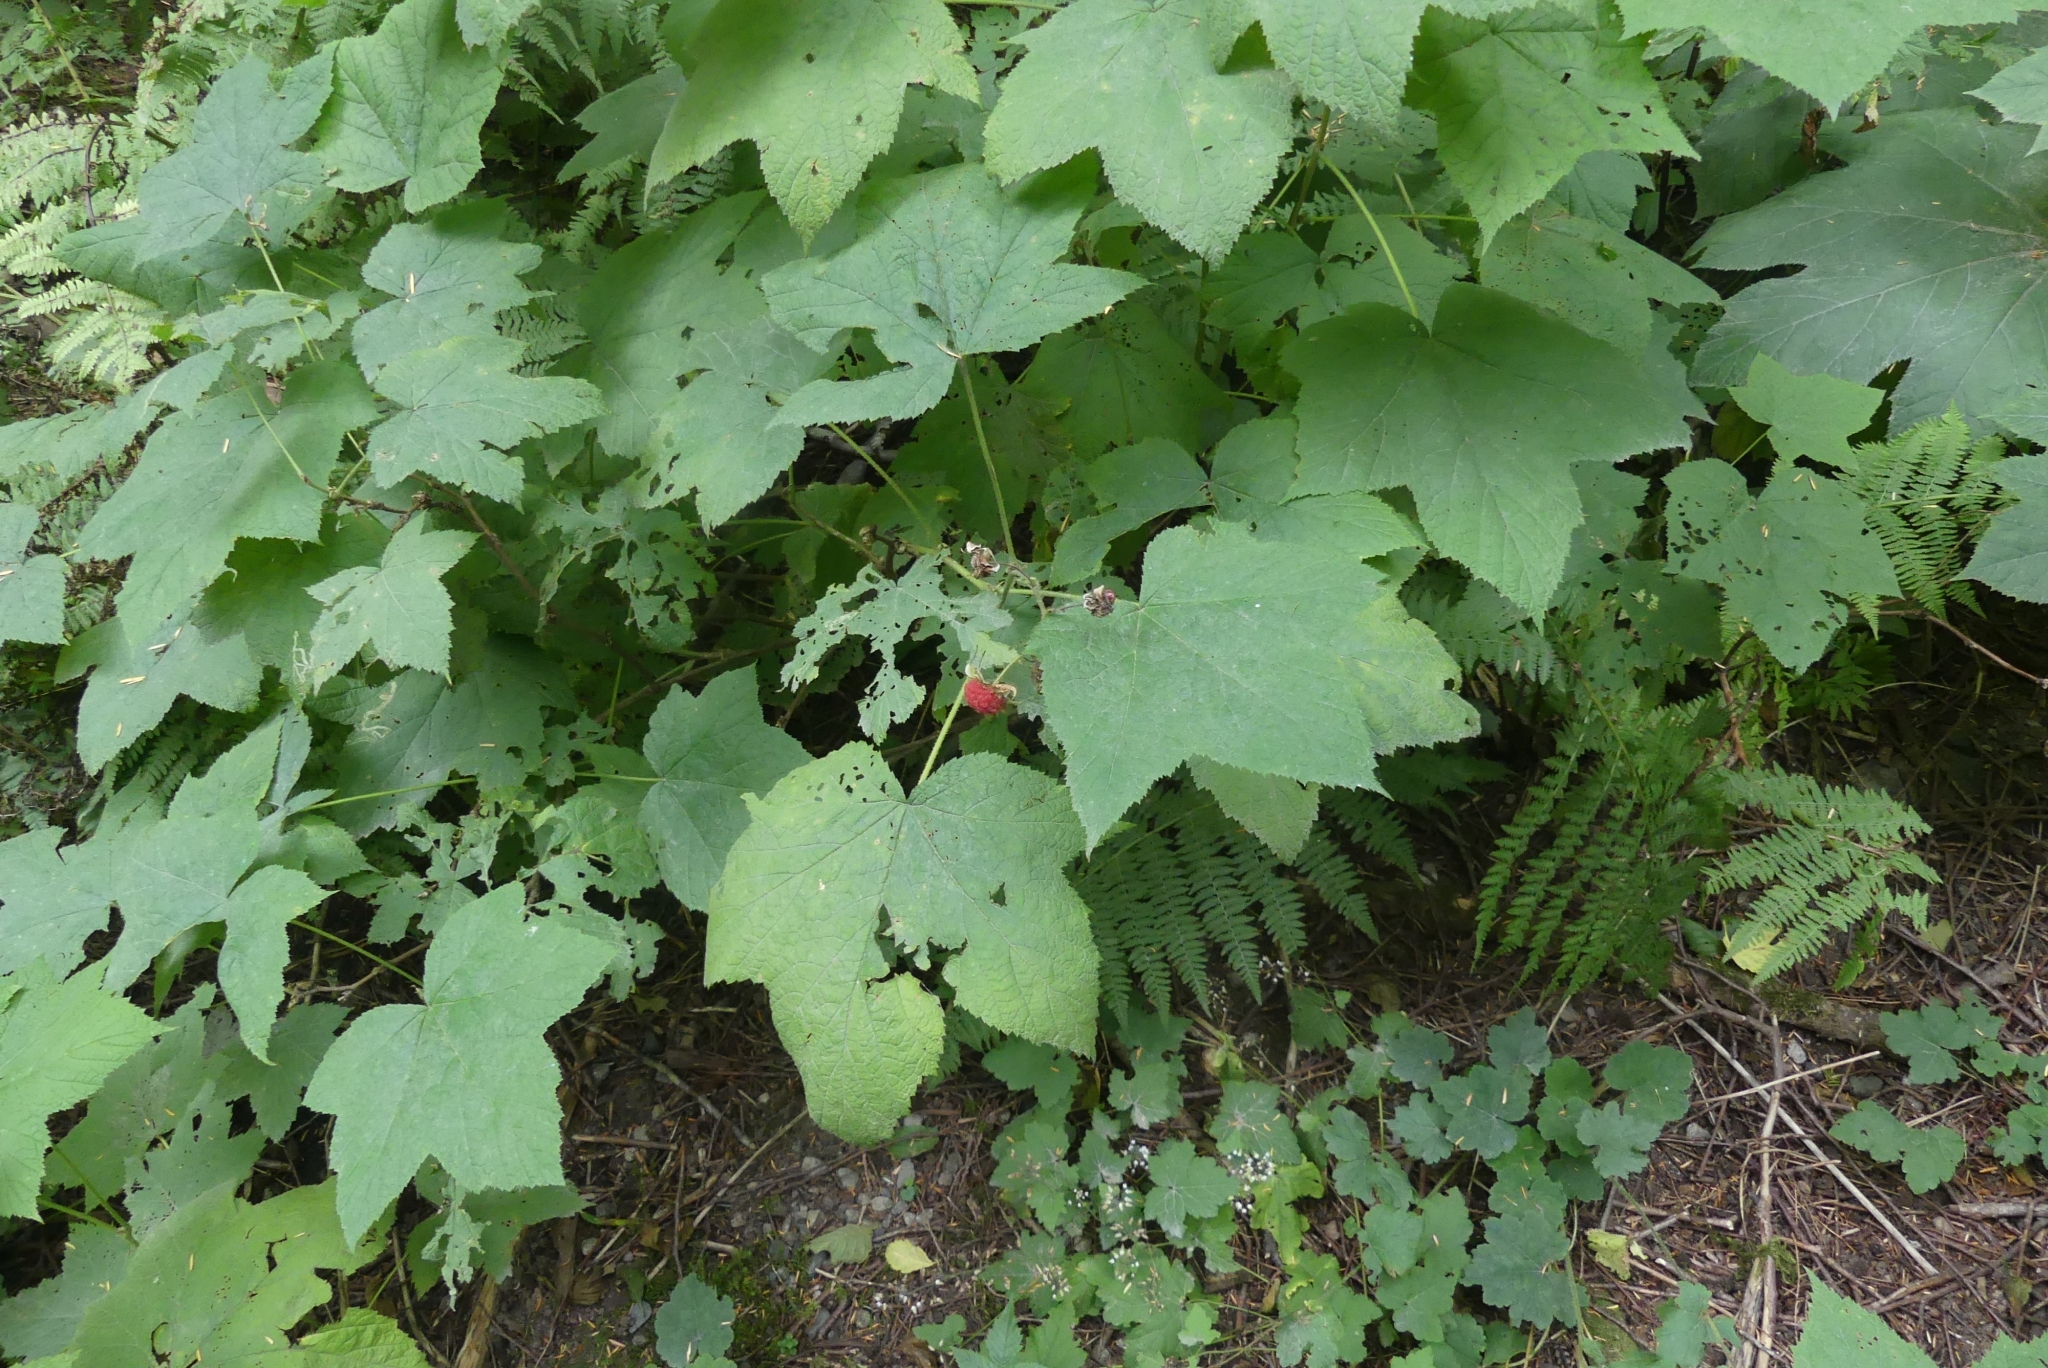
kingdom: Plantae
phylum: Tracheophyta
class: Magnoliopsida
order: Rosales
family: Rosaceae
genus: Rubus
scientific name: Rubus parviflorus
